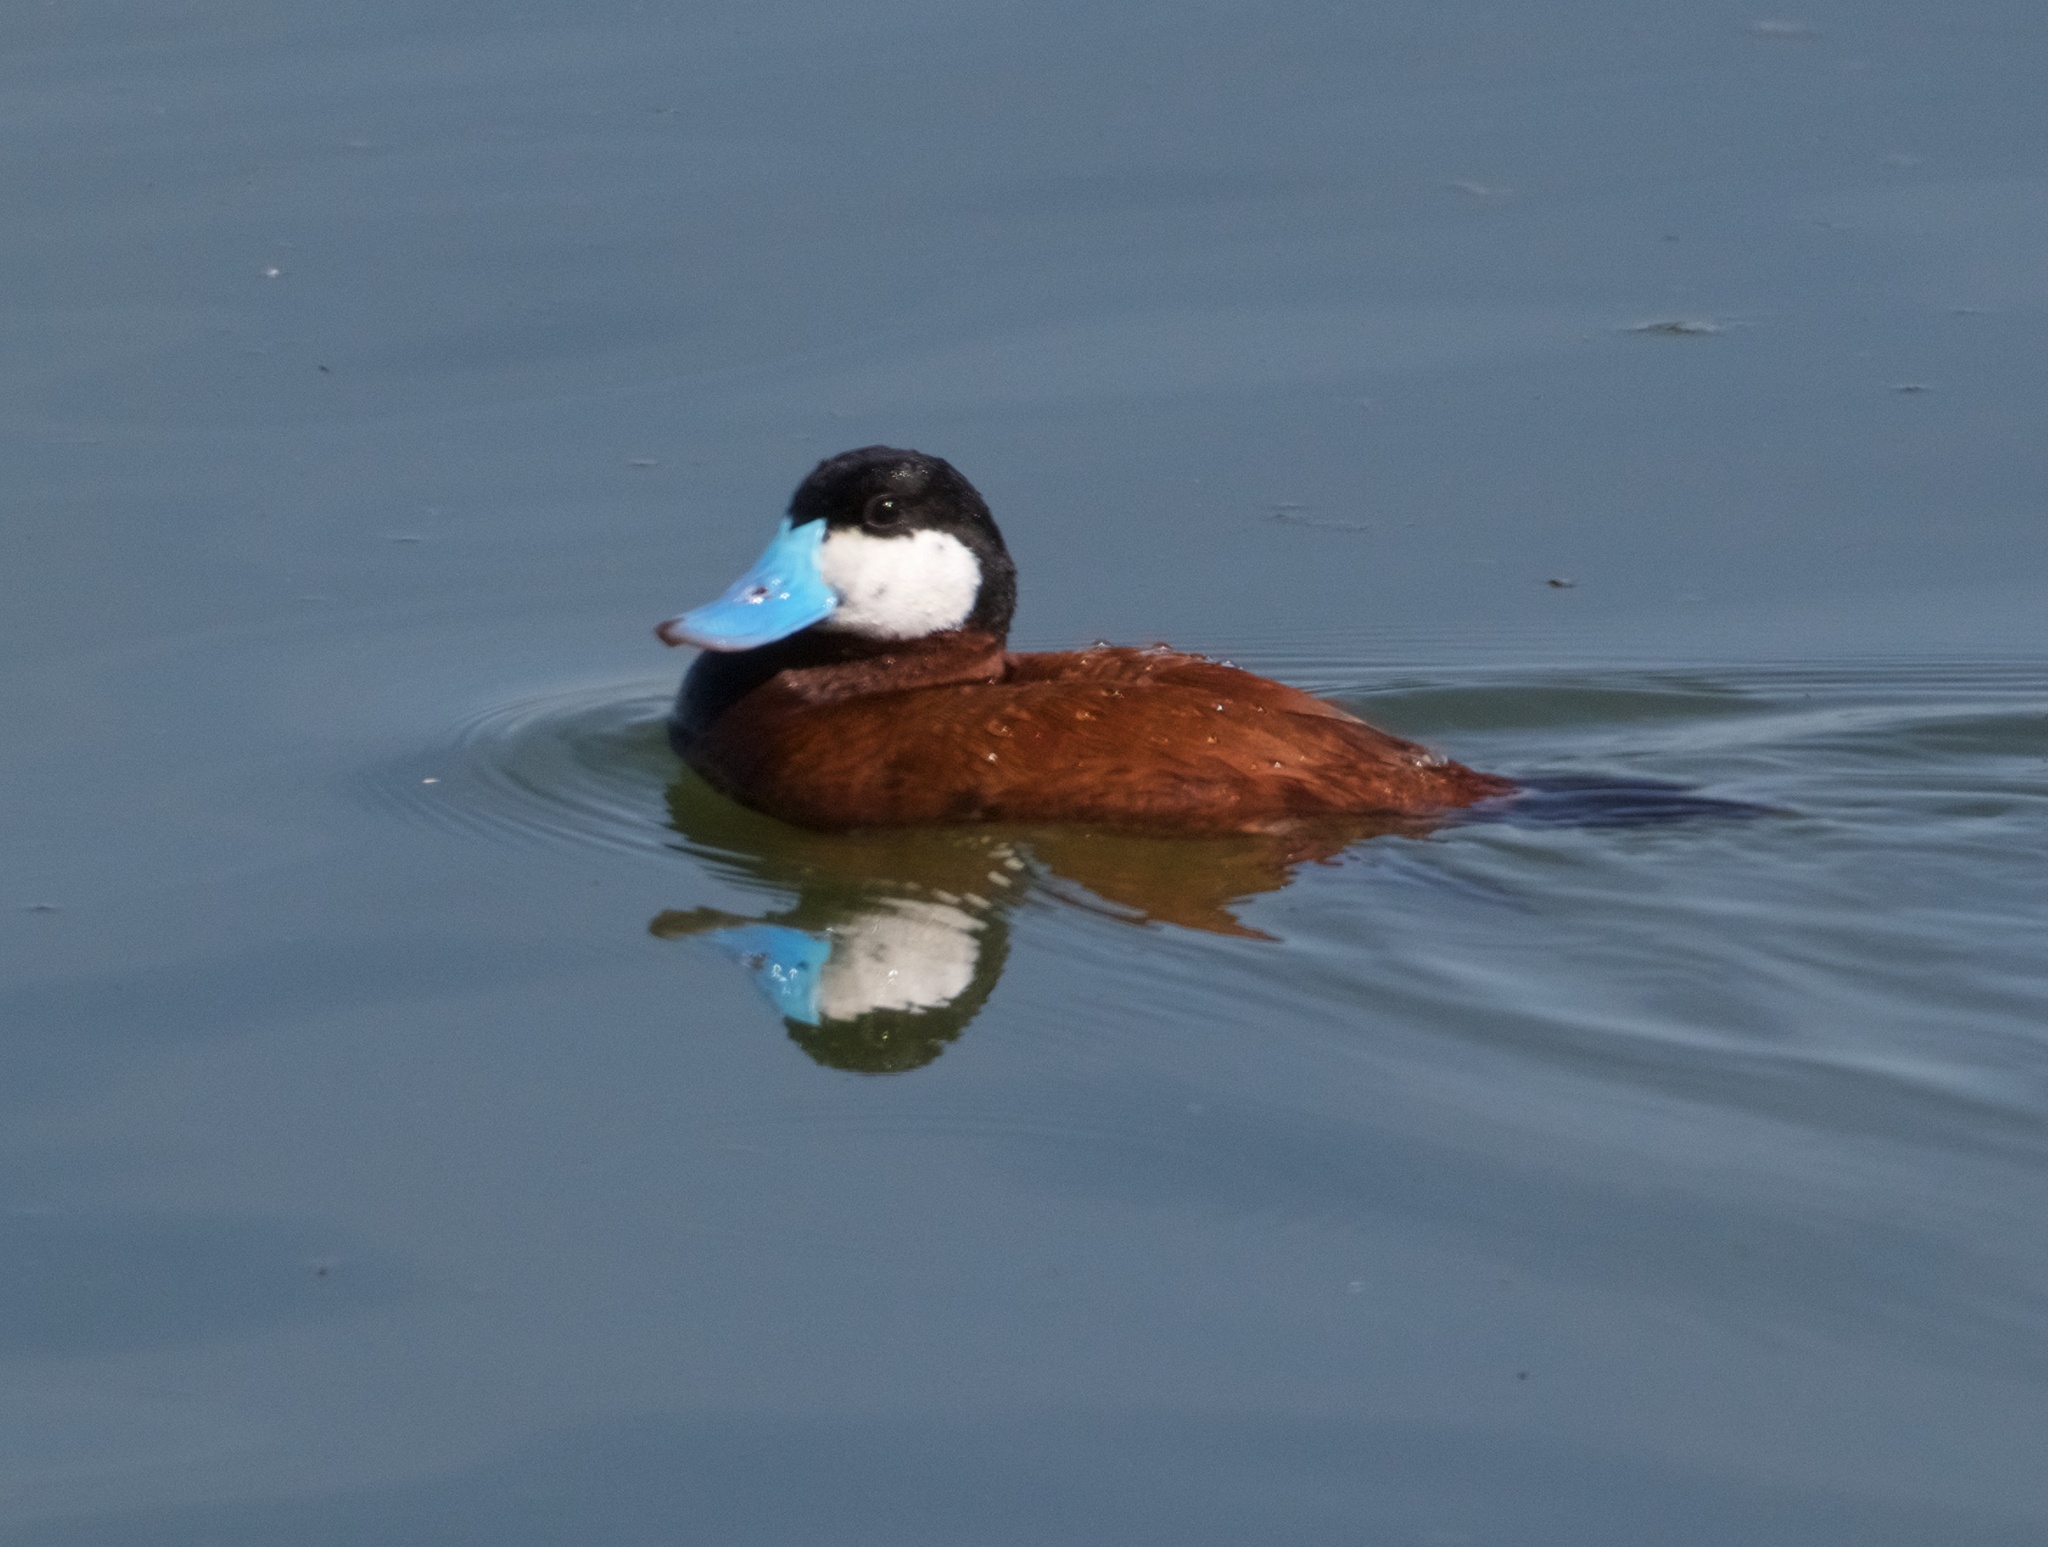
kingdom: Animalia
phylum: Chordata
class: Aves
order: Anseriformes
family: Anatidae
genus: Oxyura
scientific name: Oxyura jamaicensis
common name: Ruddy duck
